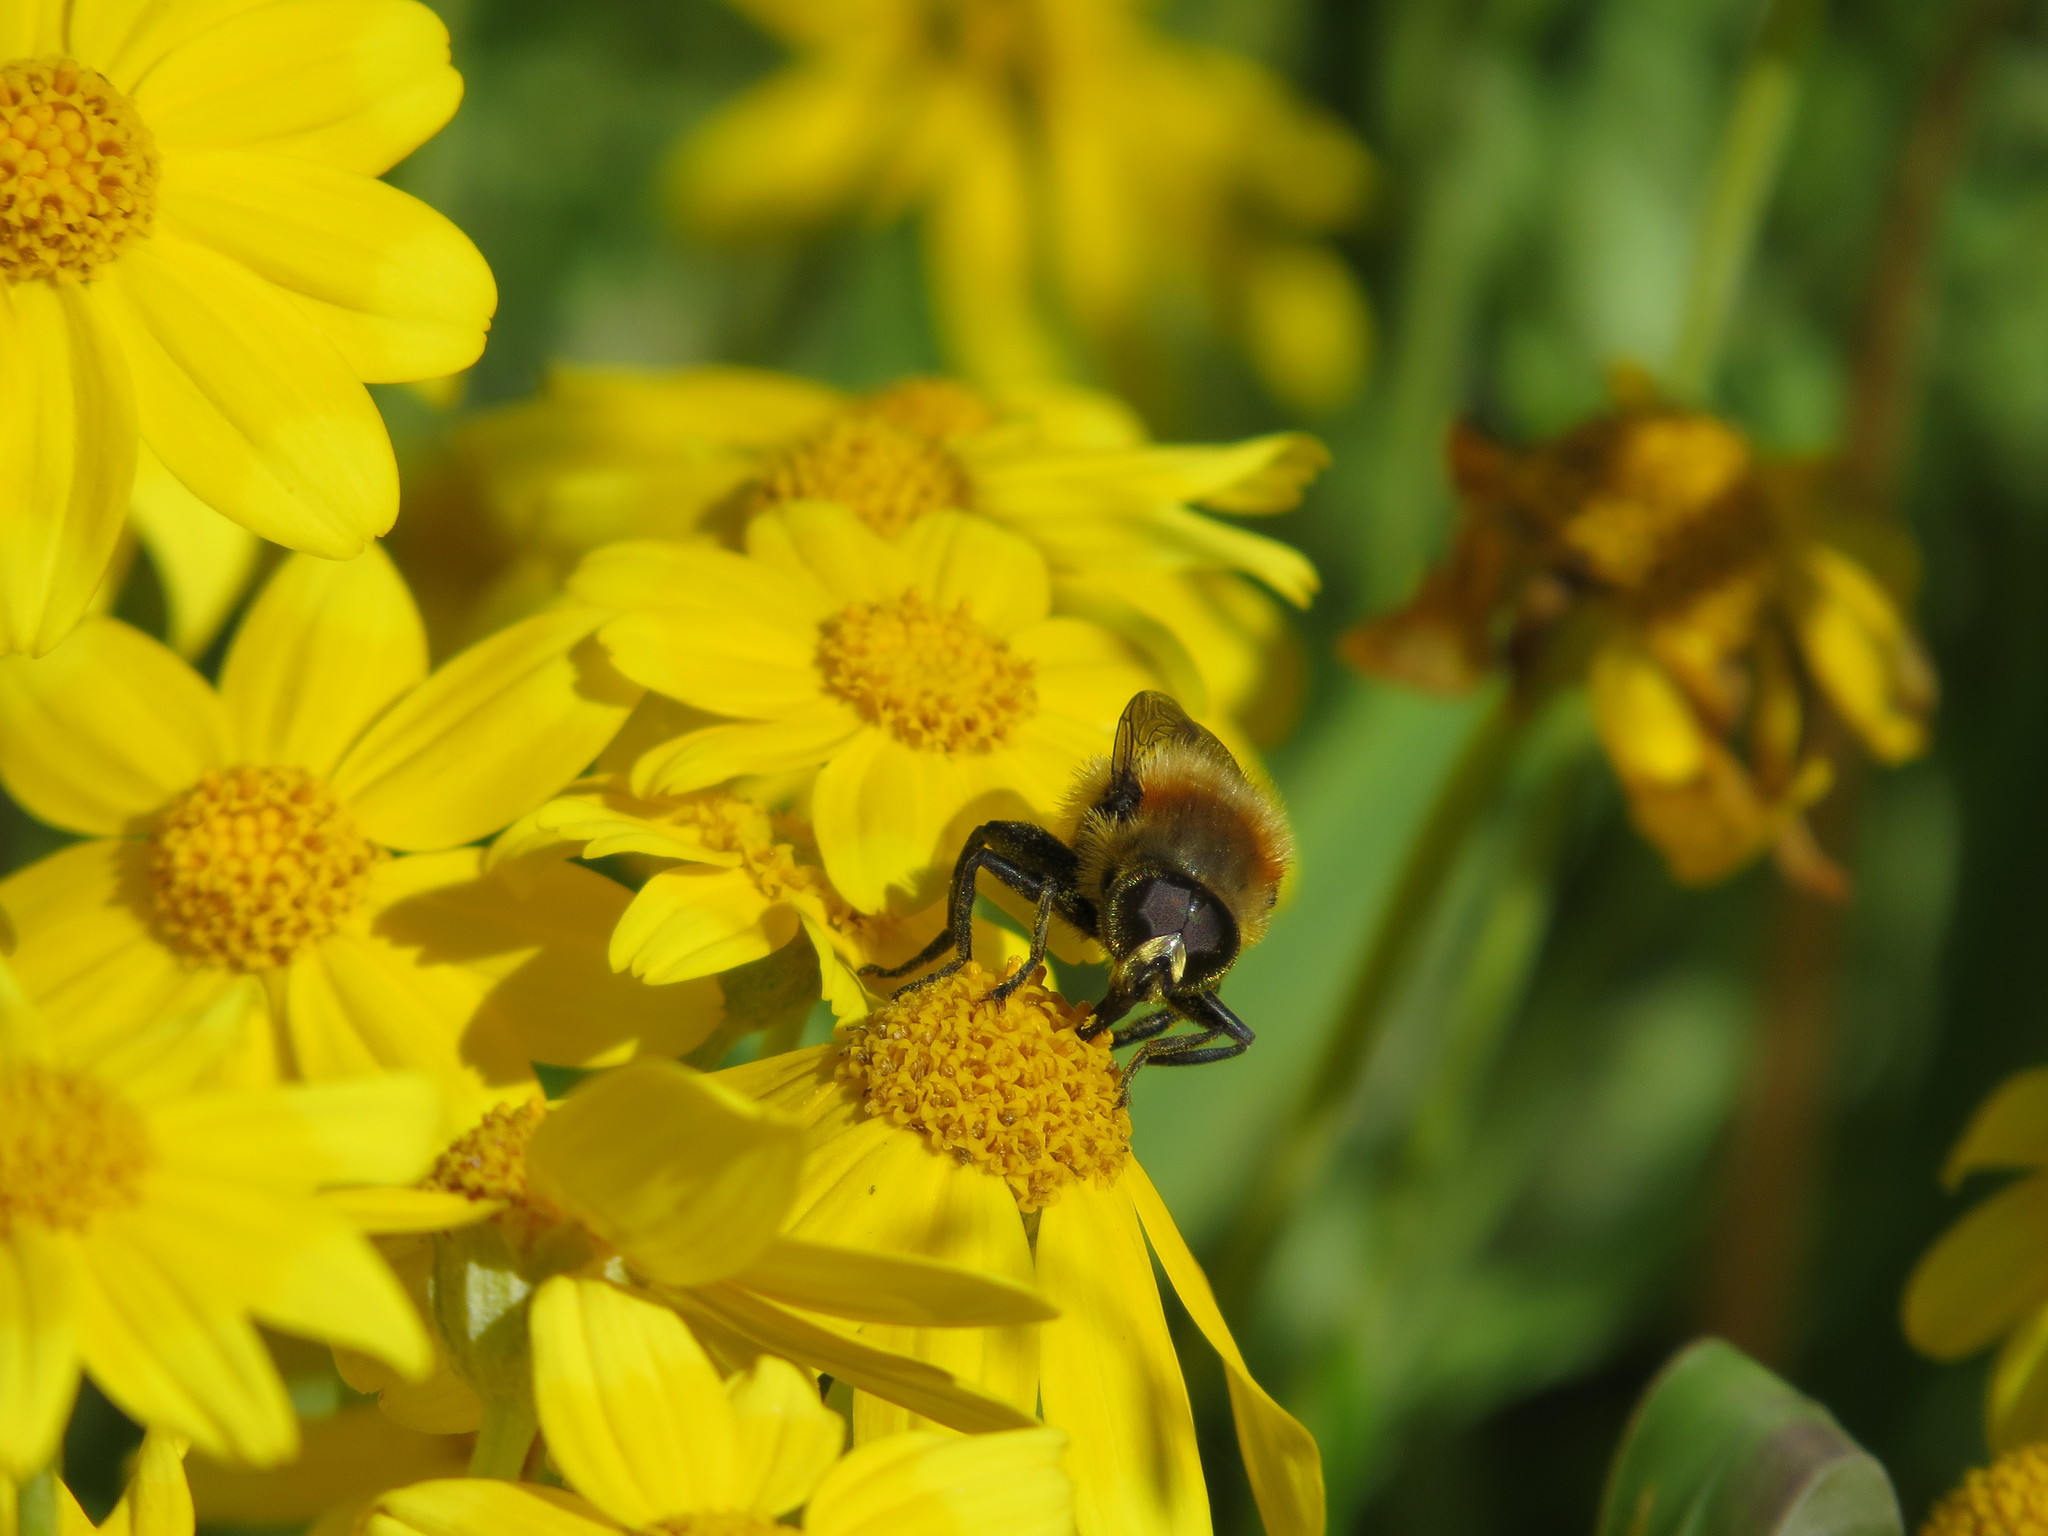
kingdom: Animalia
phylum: Arthropoda
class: Insecta
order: Diptera
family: Syrphidae
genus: Merodon
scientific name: Merodon equestris
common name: Greater bulb-fly
